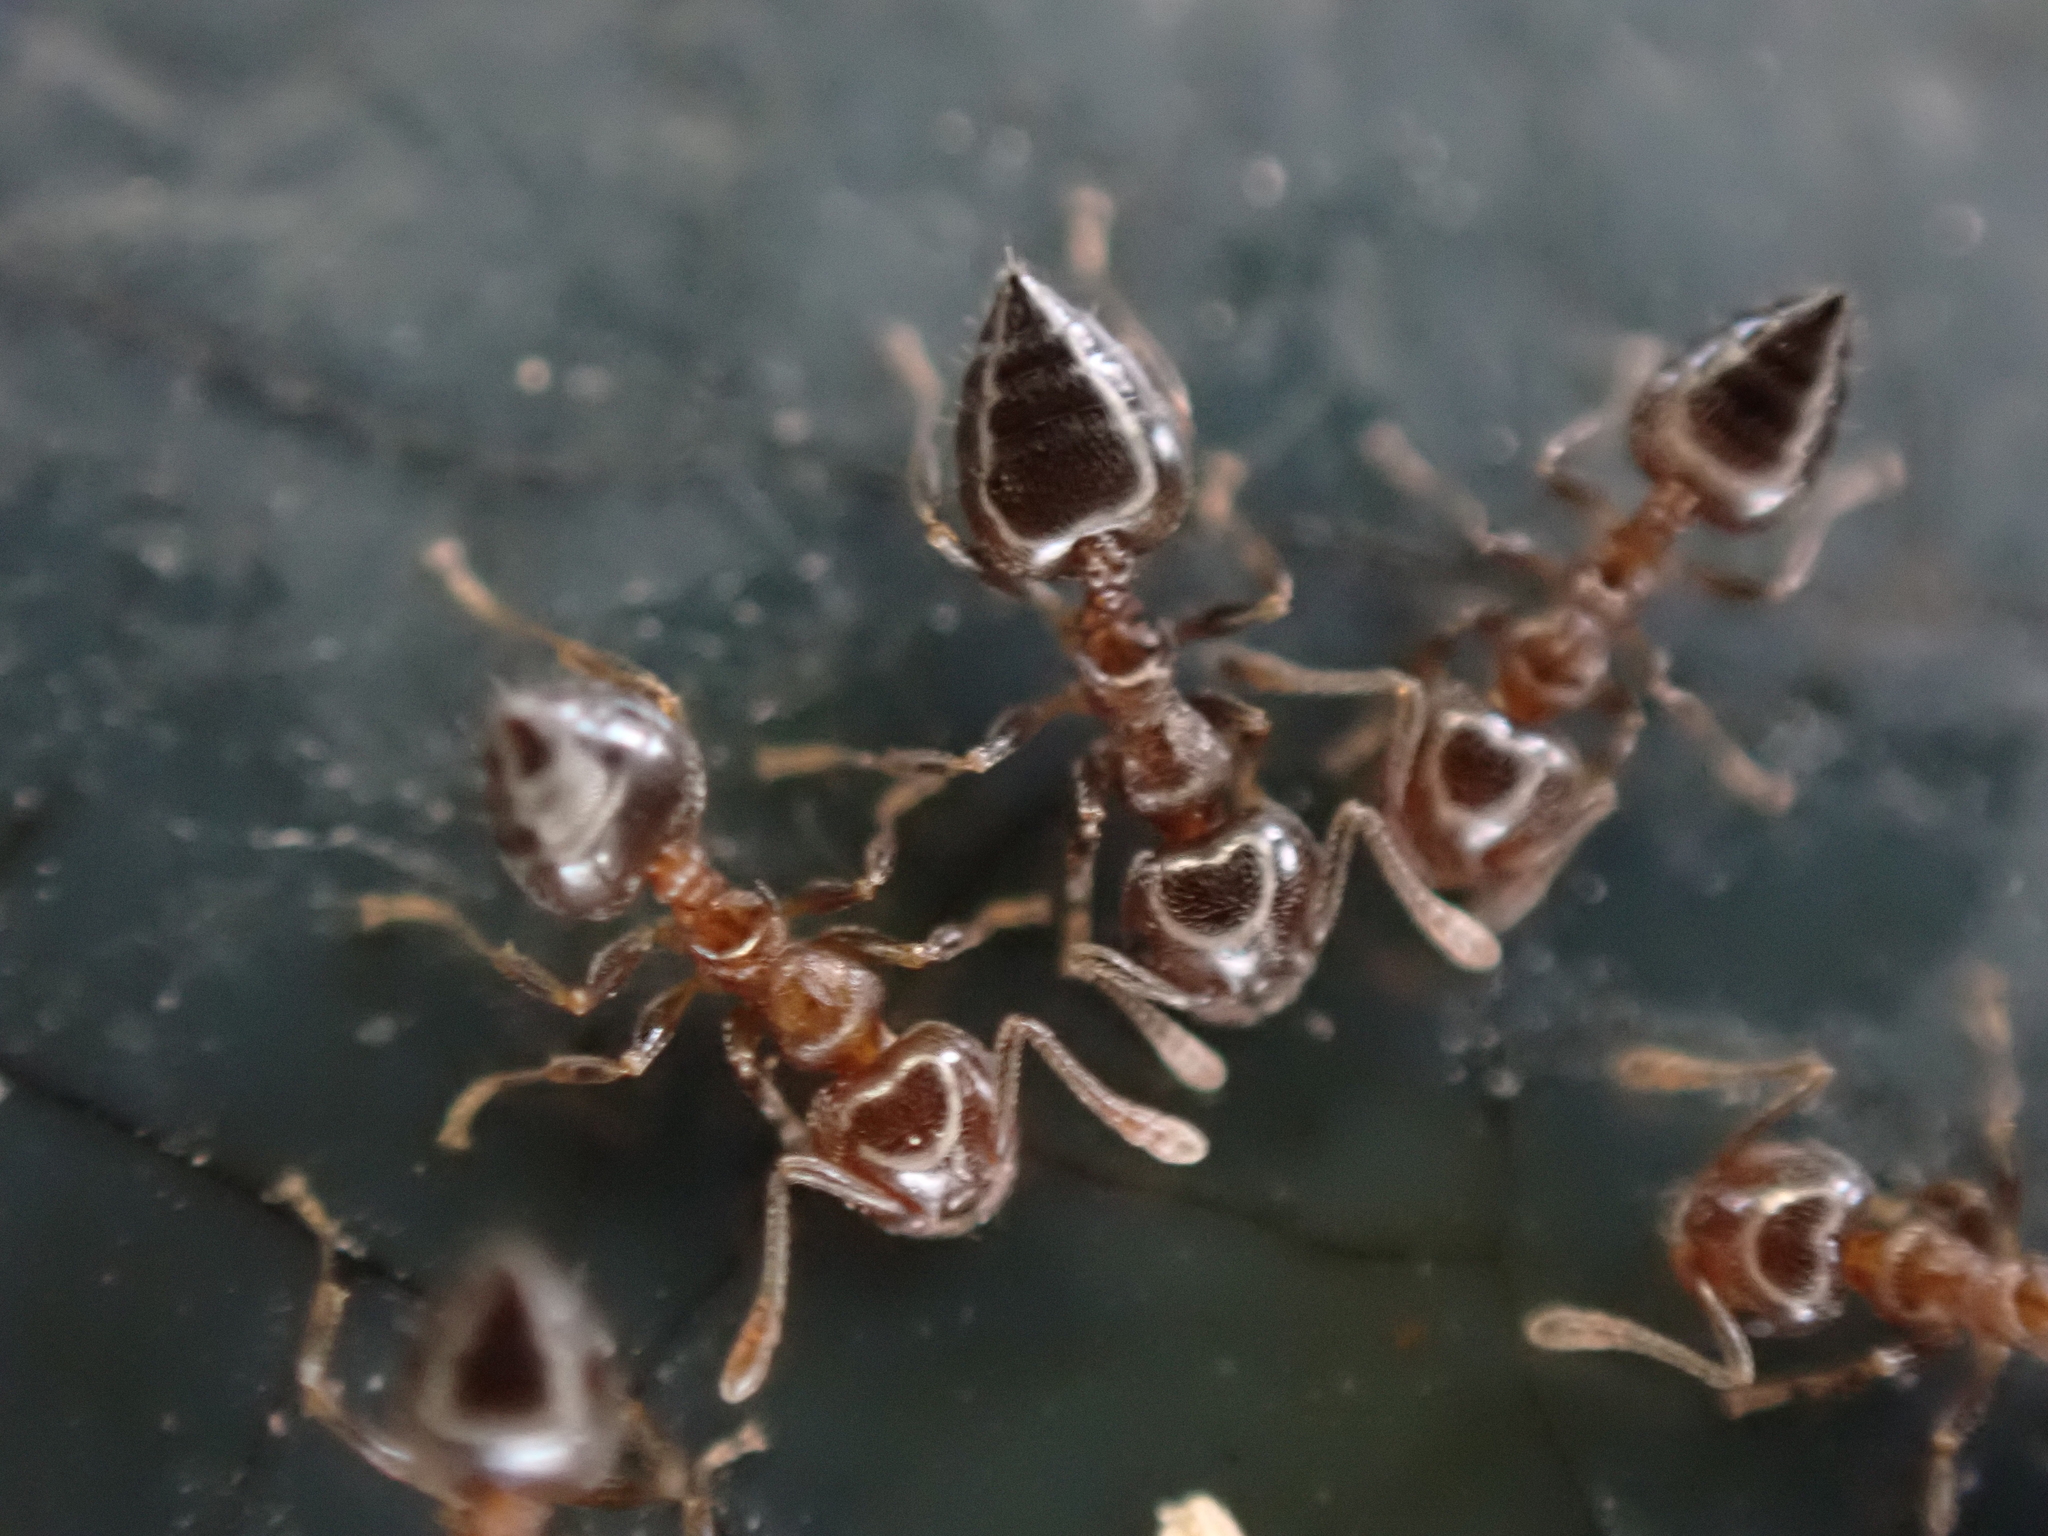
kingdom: Animalia
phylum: Arthropoda
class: Insecta
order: Hymenoptera
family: Formicidae
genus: Crematogaster
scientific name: Crematogaster ashmeadi
